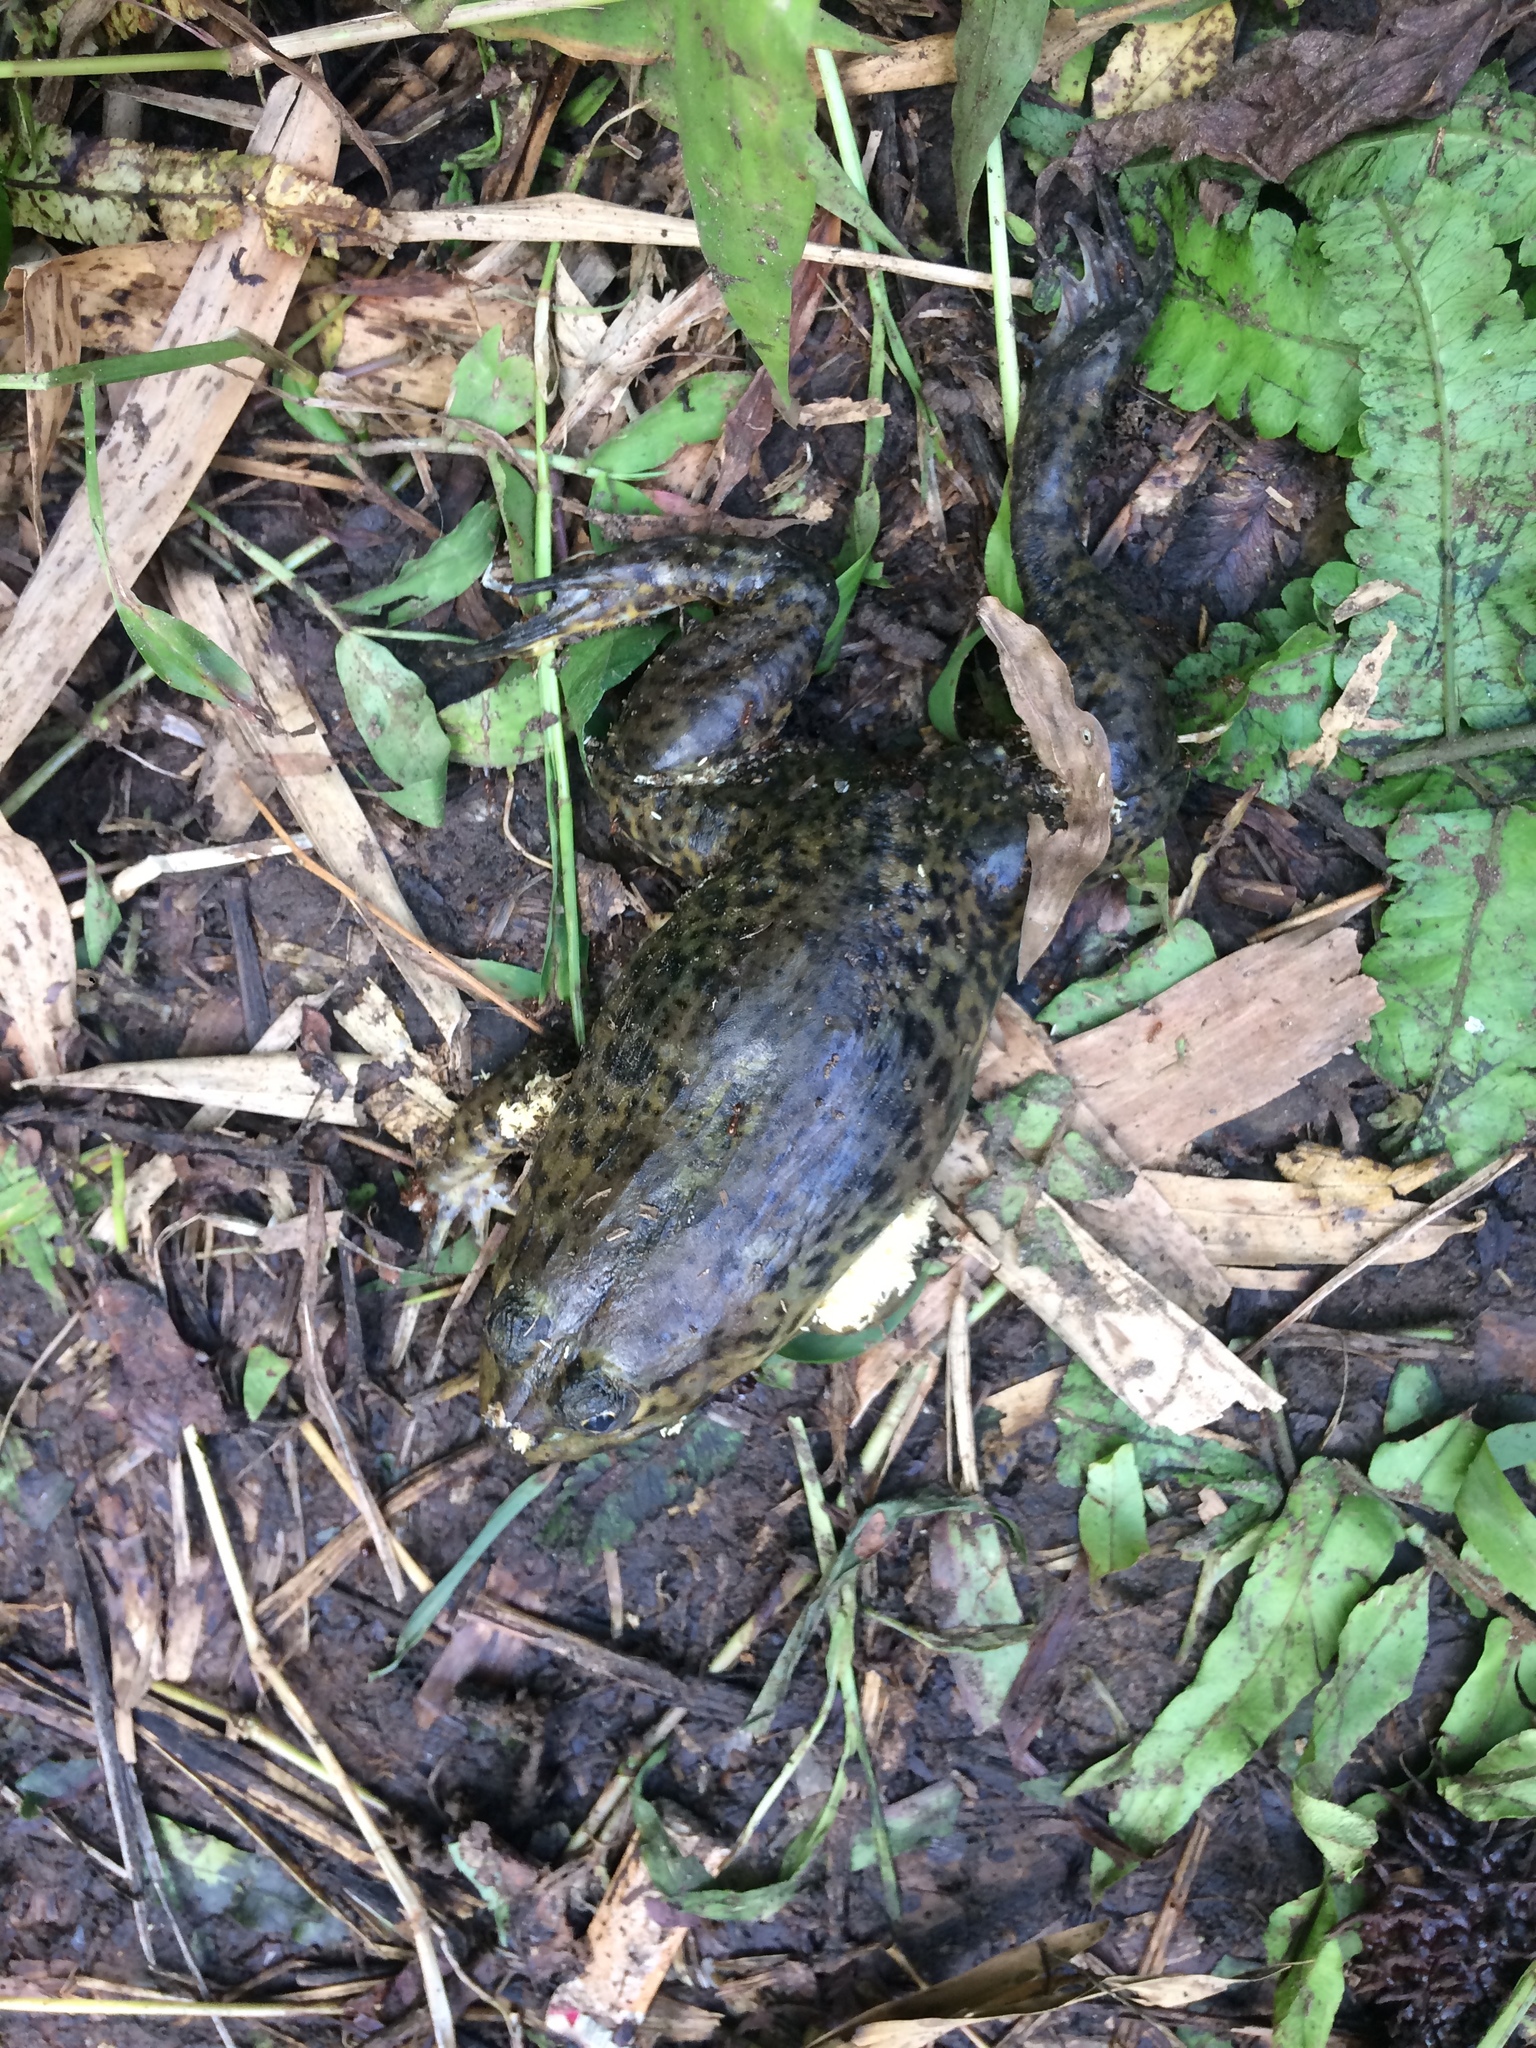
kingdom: Animalia
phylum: Chordata
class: Amphibia
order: Anura
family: Dicroglossidae
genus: Hoplobatrachus
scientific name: Hoplobatrachus rugulosus
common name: Chinese edible frog
